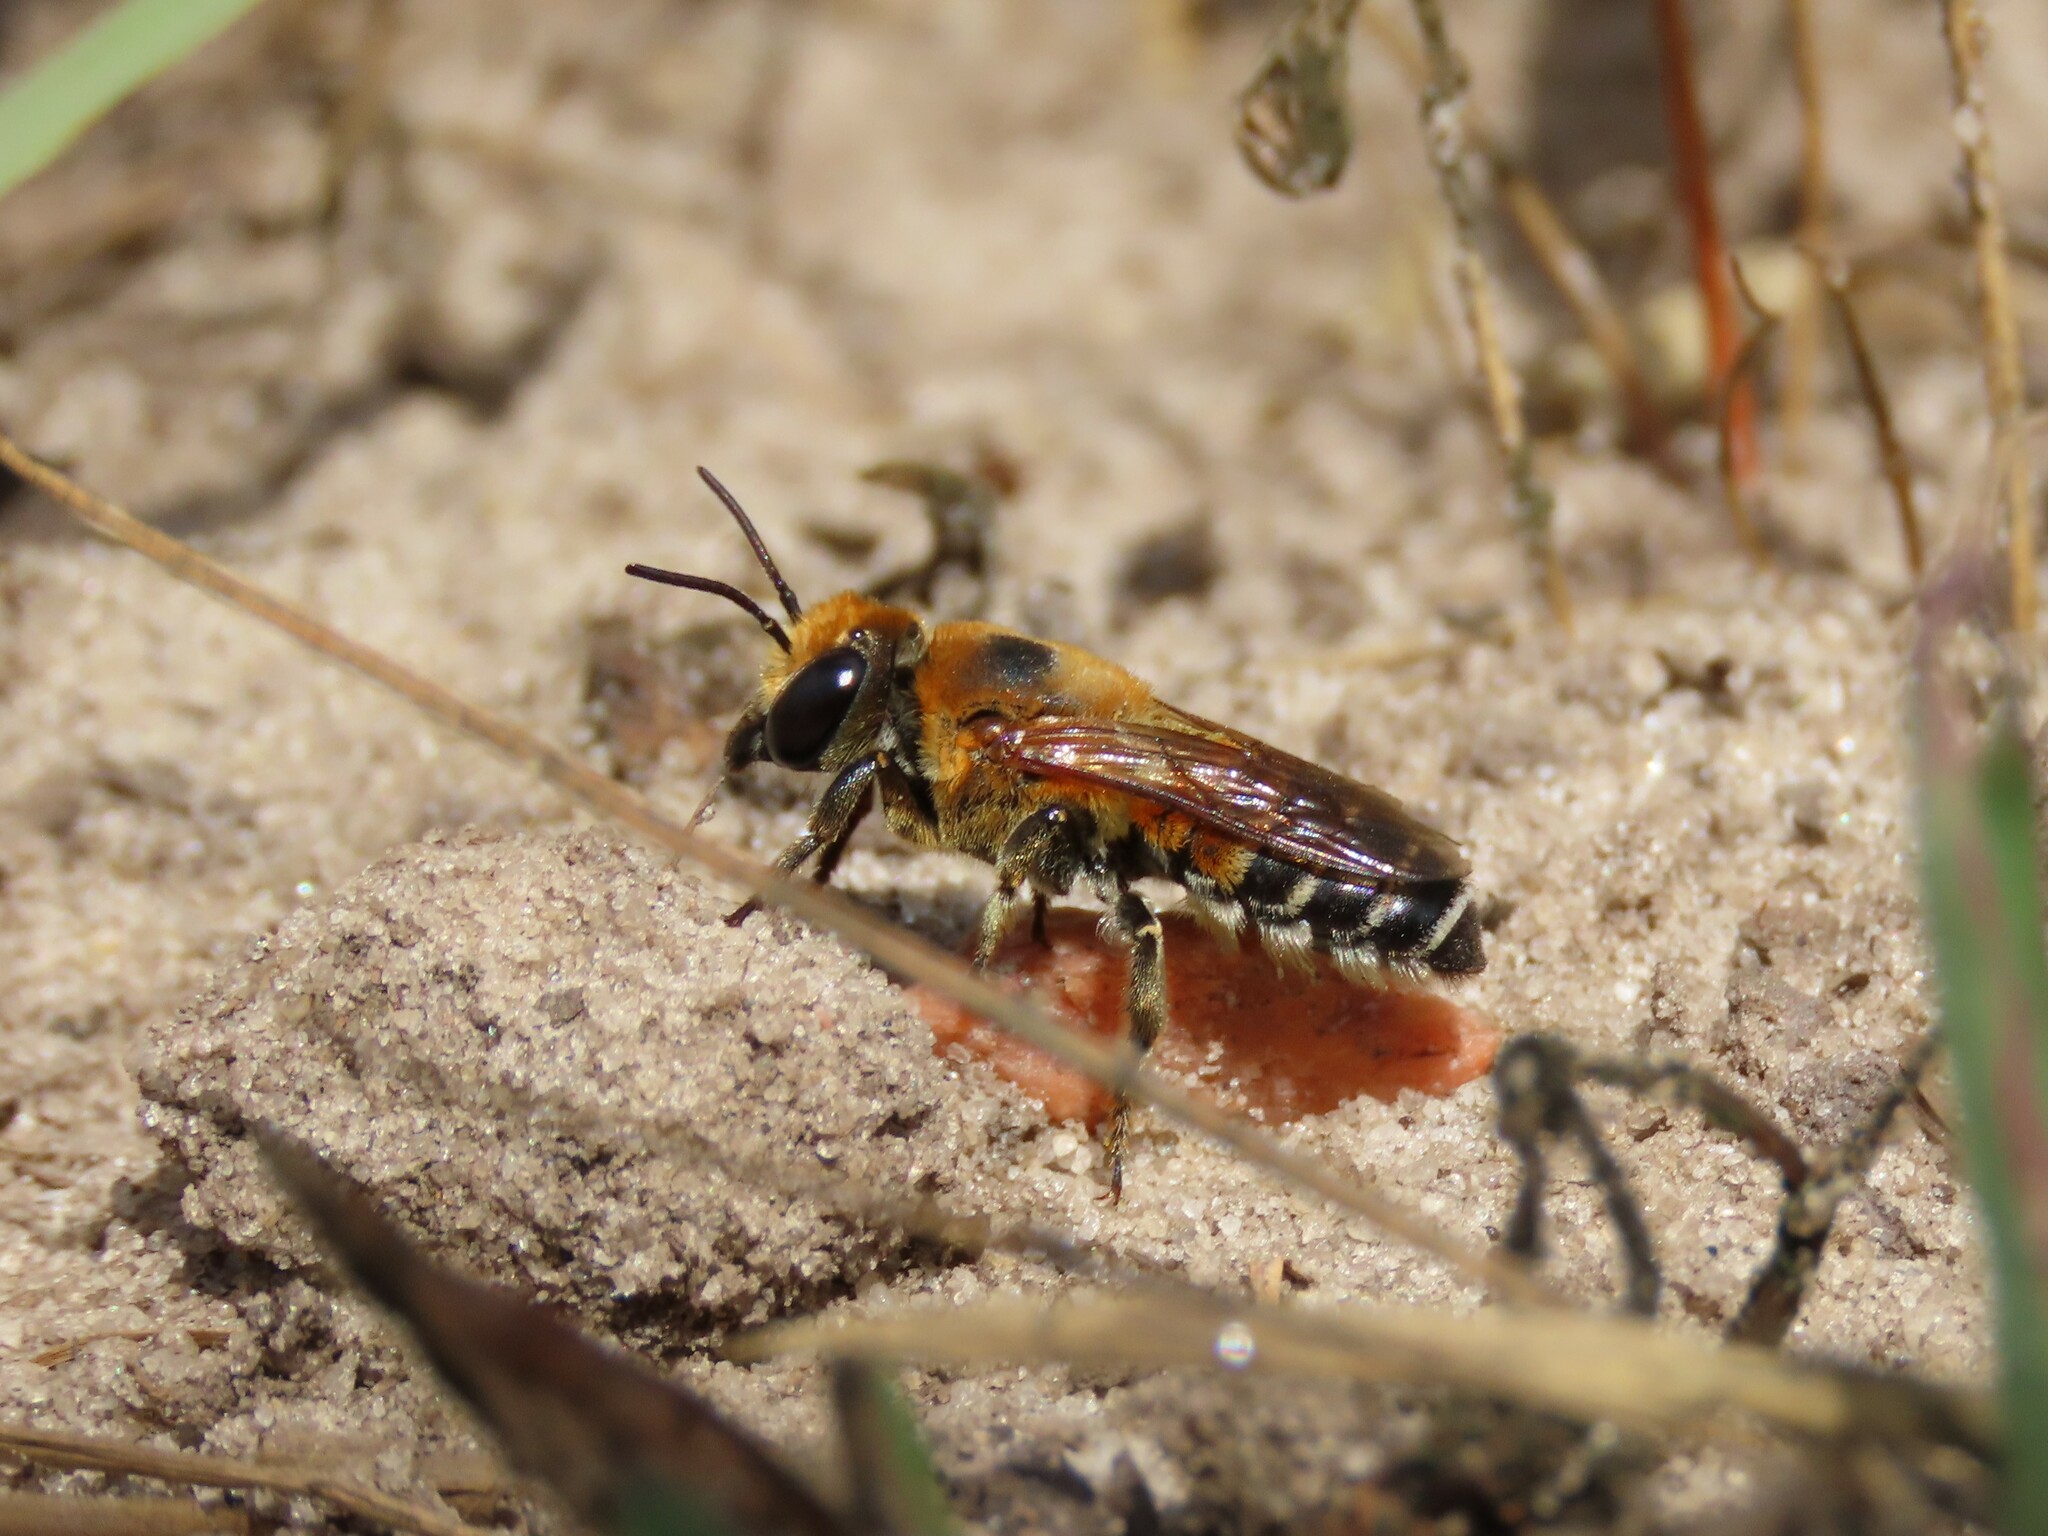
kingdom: Animalia
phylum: Arthropoda
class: Insecta
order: Hymenoptera
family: Megachilidae
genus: Megachile
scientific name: Megachile lanata
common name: Wooly wall bee
